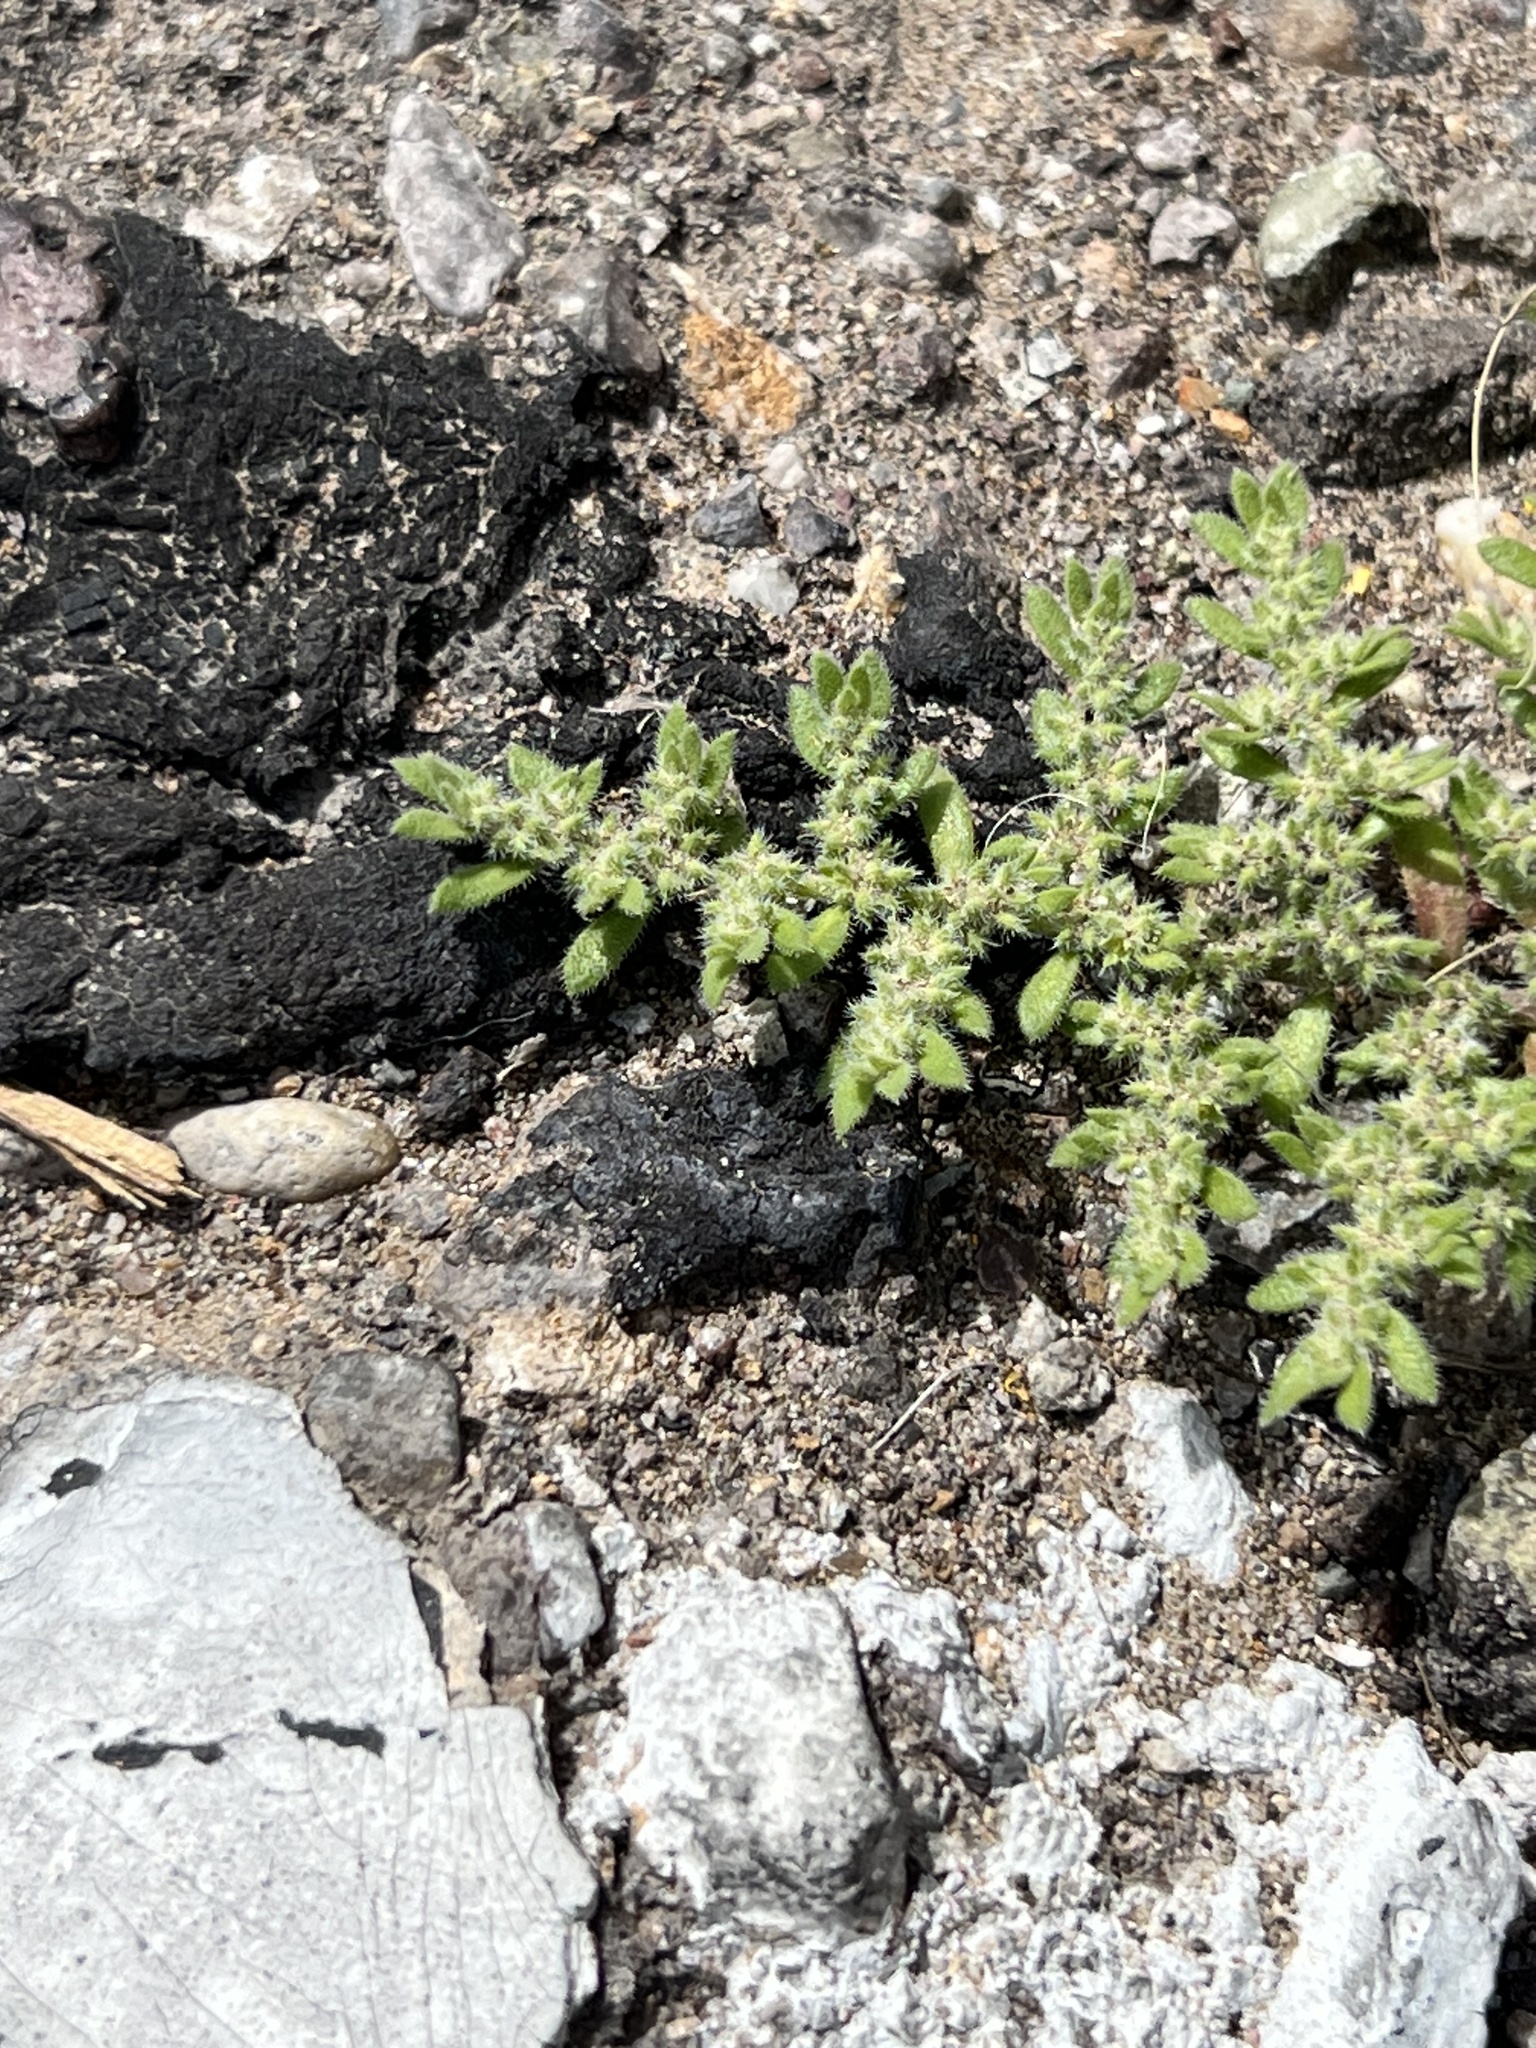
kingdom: Plantae
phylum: Tracheophyta
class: Magnoliopsida
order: Caryophyllales
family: Caryophyllaceae
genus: Herniaria
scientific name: Herniaria hirsuta
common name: Hairy rupturewort
